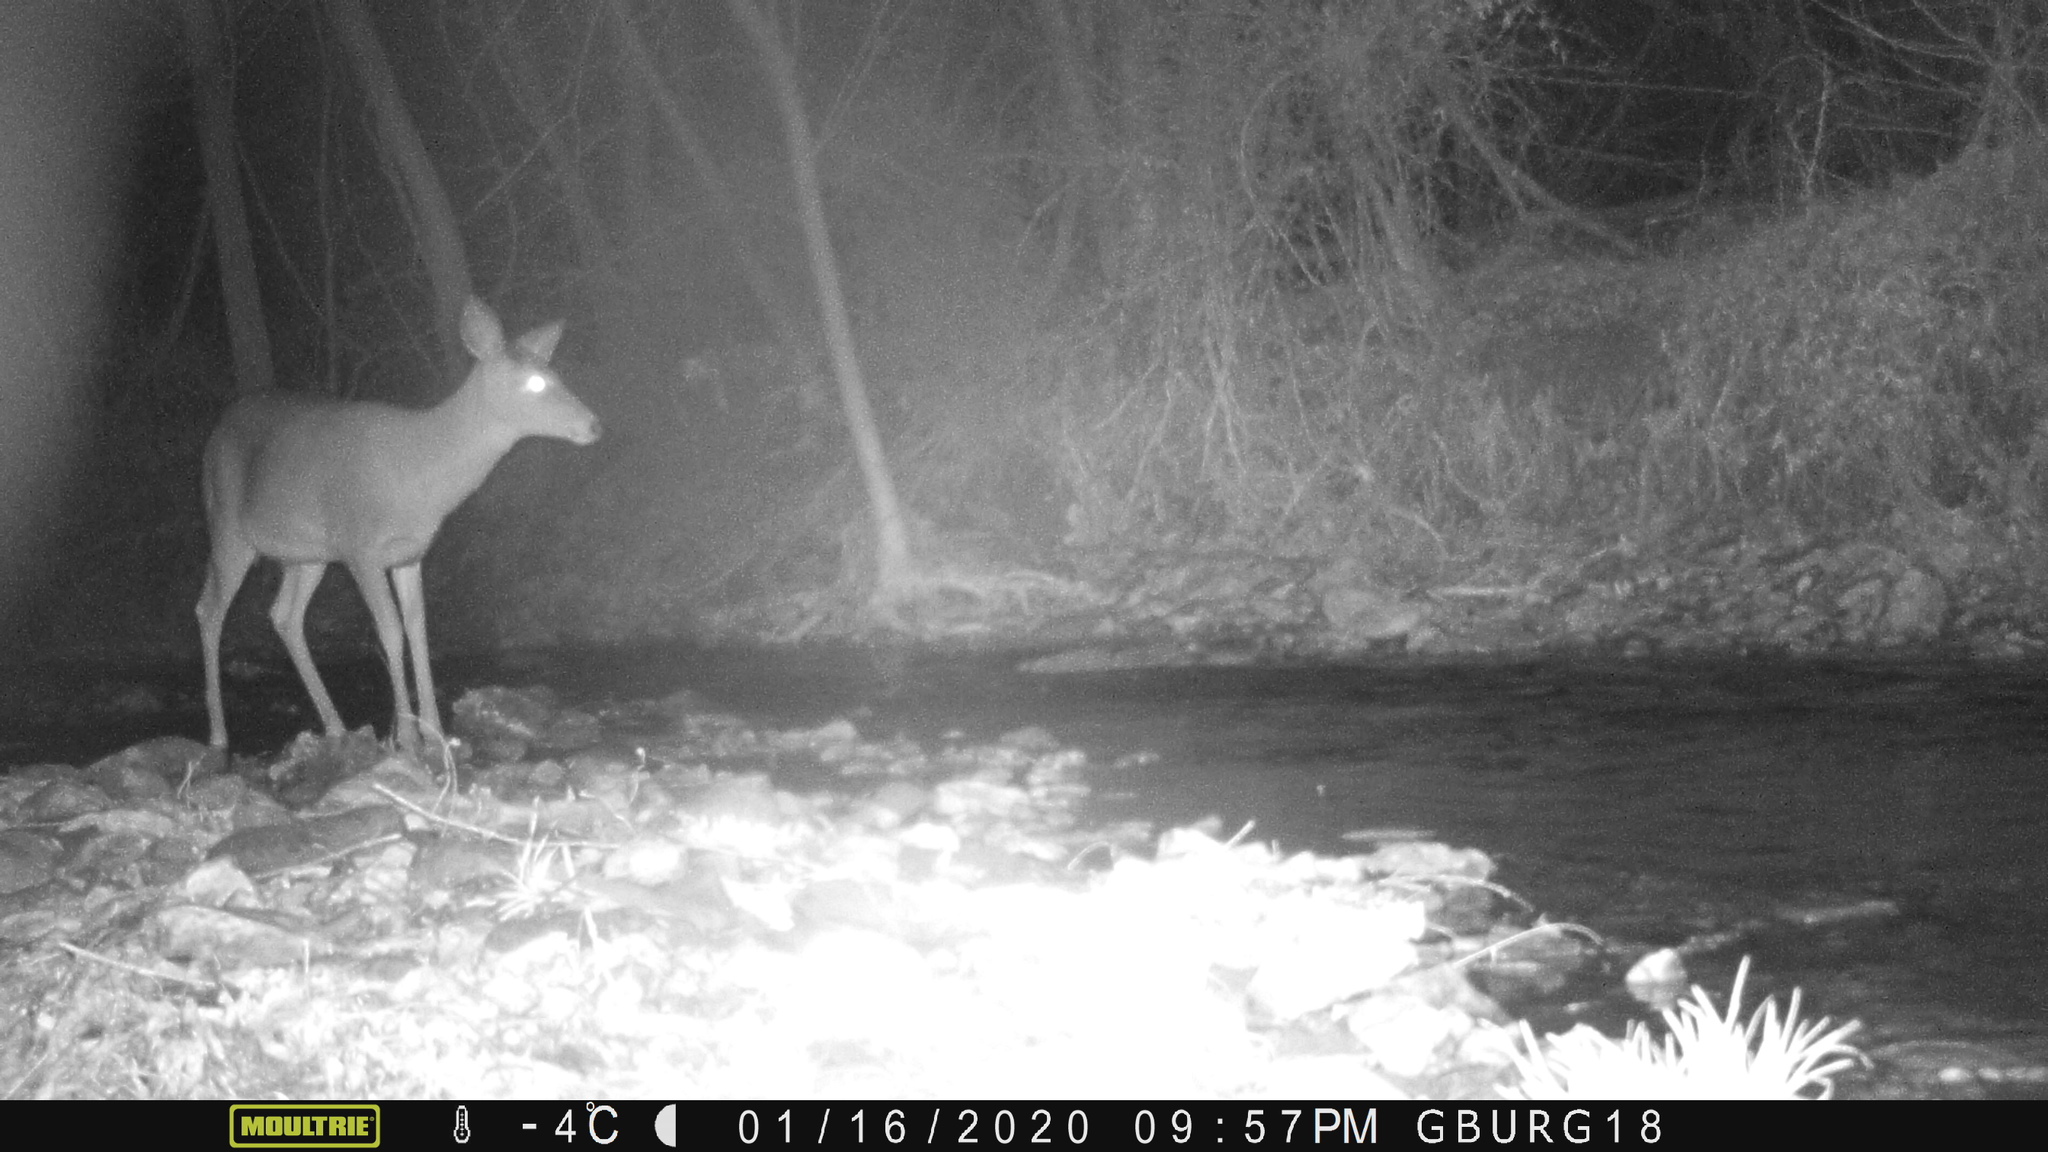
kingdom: Animalia
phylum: Chordata
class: Mammalia
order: Artiodactyla
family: Cervidae
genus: Odocoileus
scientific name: Odocoileus virginianus
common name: White-tailed deer
